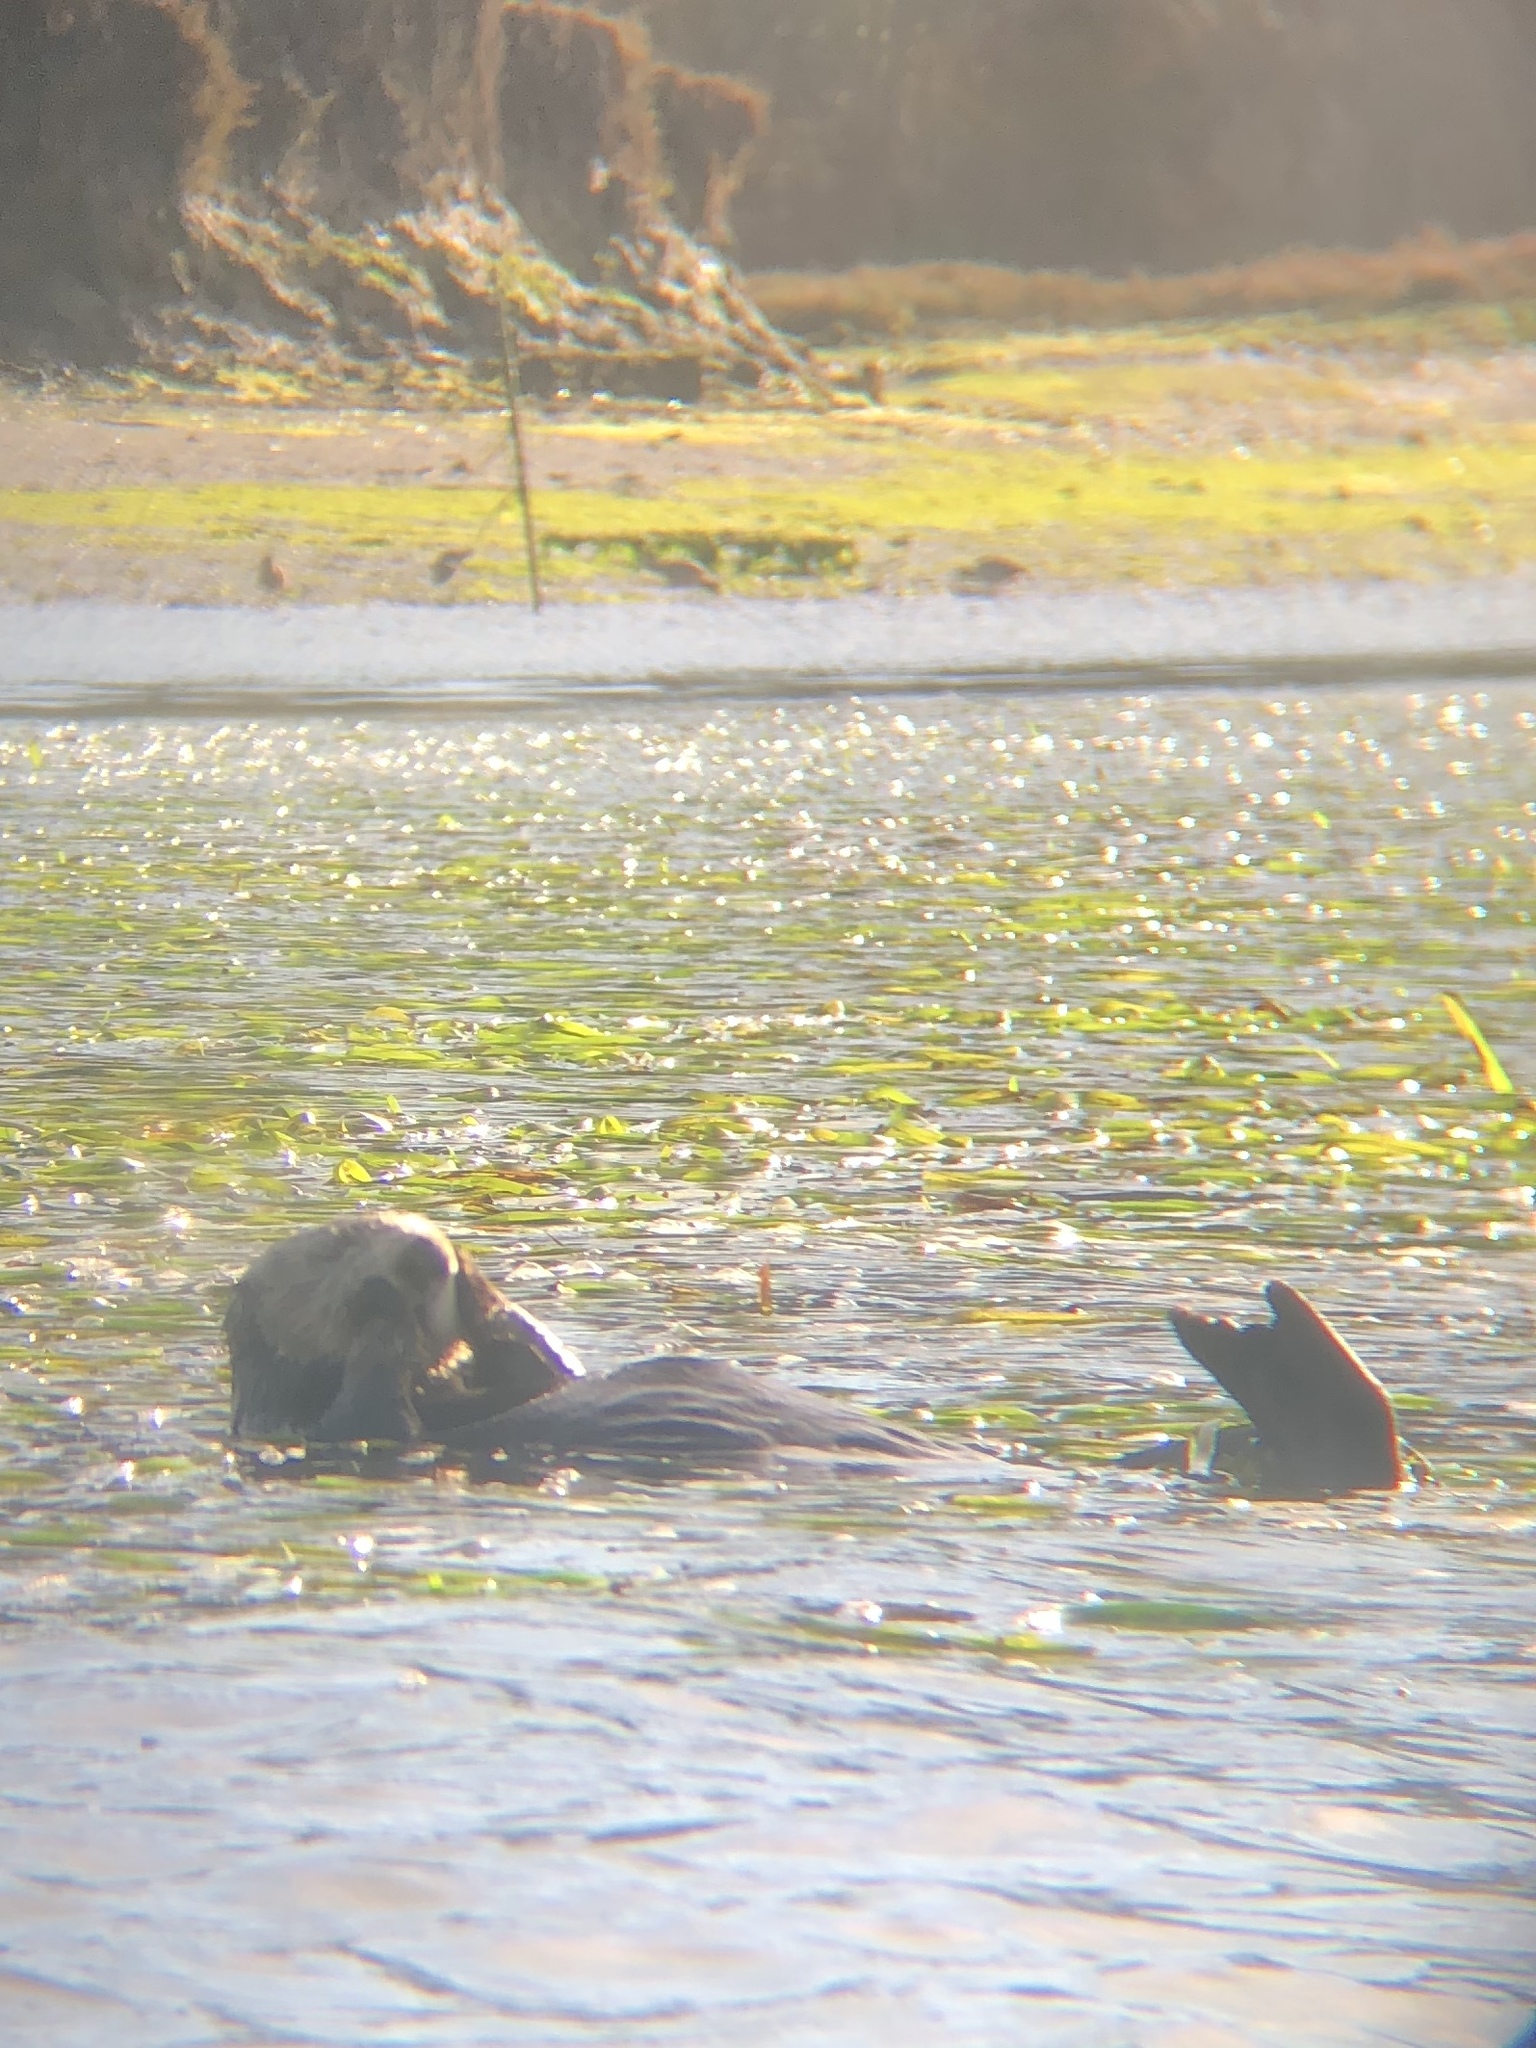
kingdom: Animalia
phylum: Chordata
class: Mammalia
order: Carnivora
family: Mustelidae
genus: Enhydra
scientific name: Enhydra lutris
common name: Sea otter
